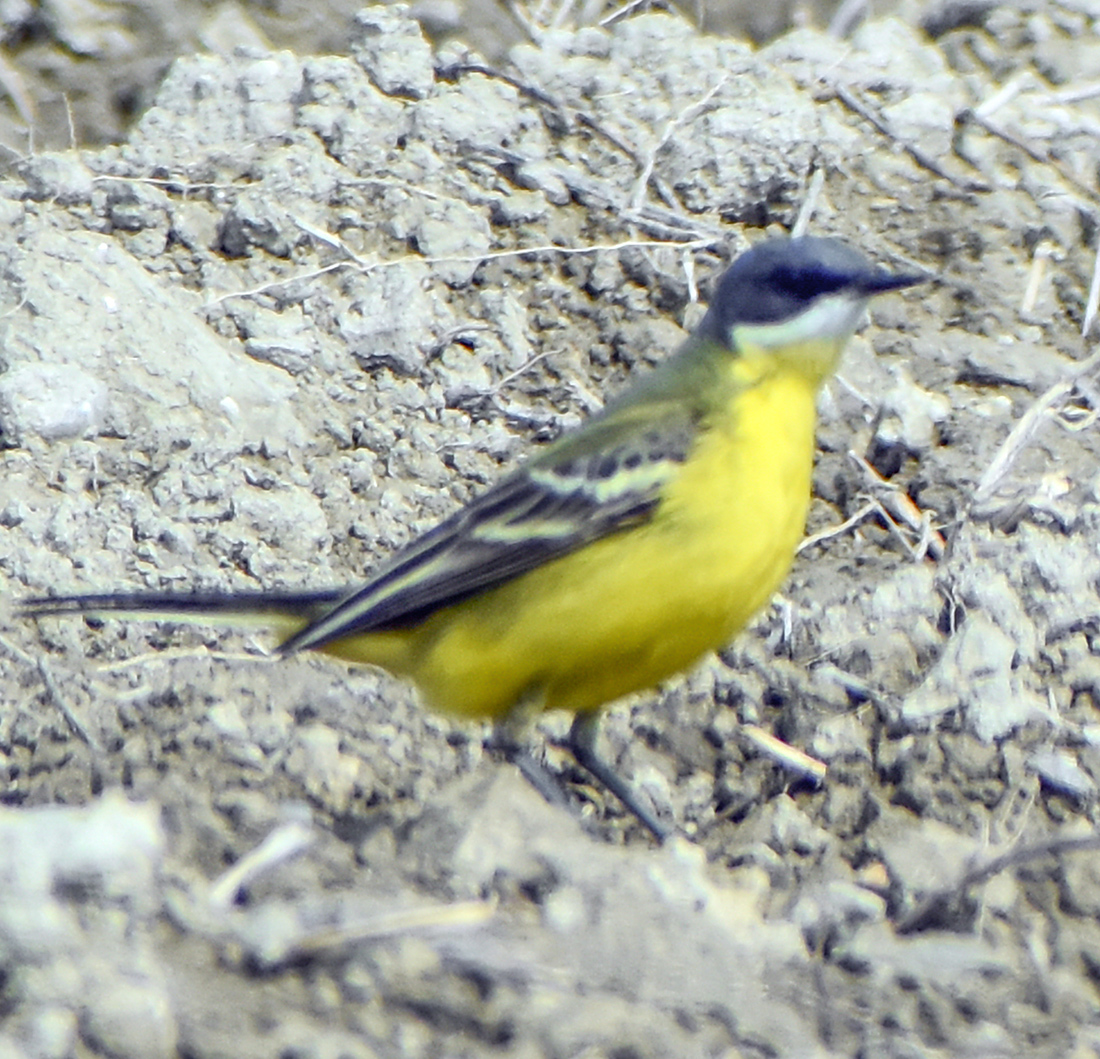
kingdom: Animalia
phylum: Chordata
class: Aves
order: Passeriformes
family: Motacillidae
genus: Motacilla
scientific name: Motacilla flava
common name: Western yellow wagtail
